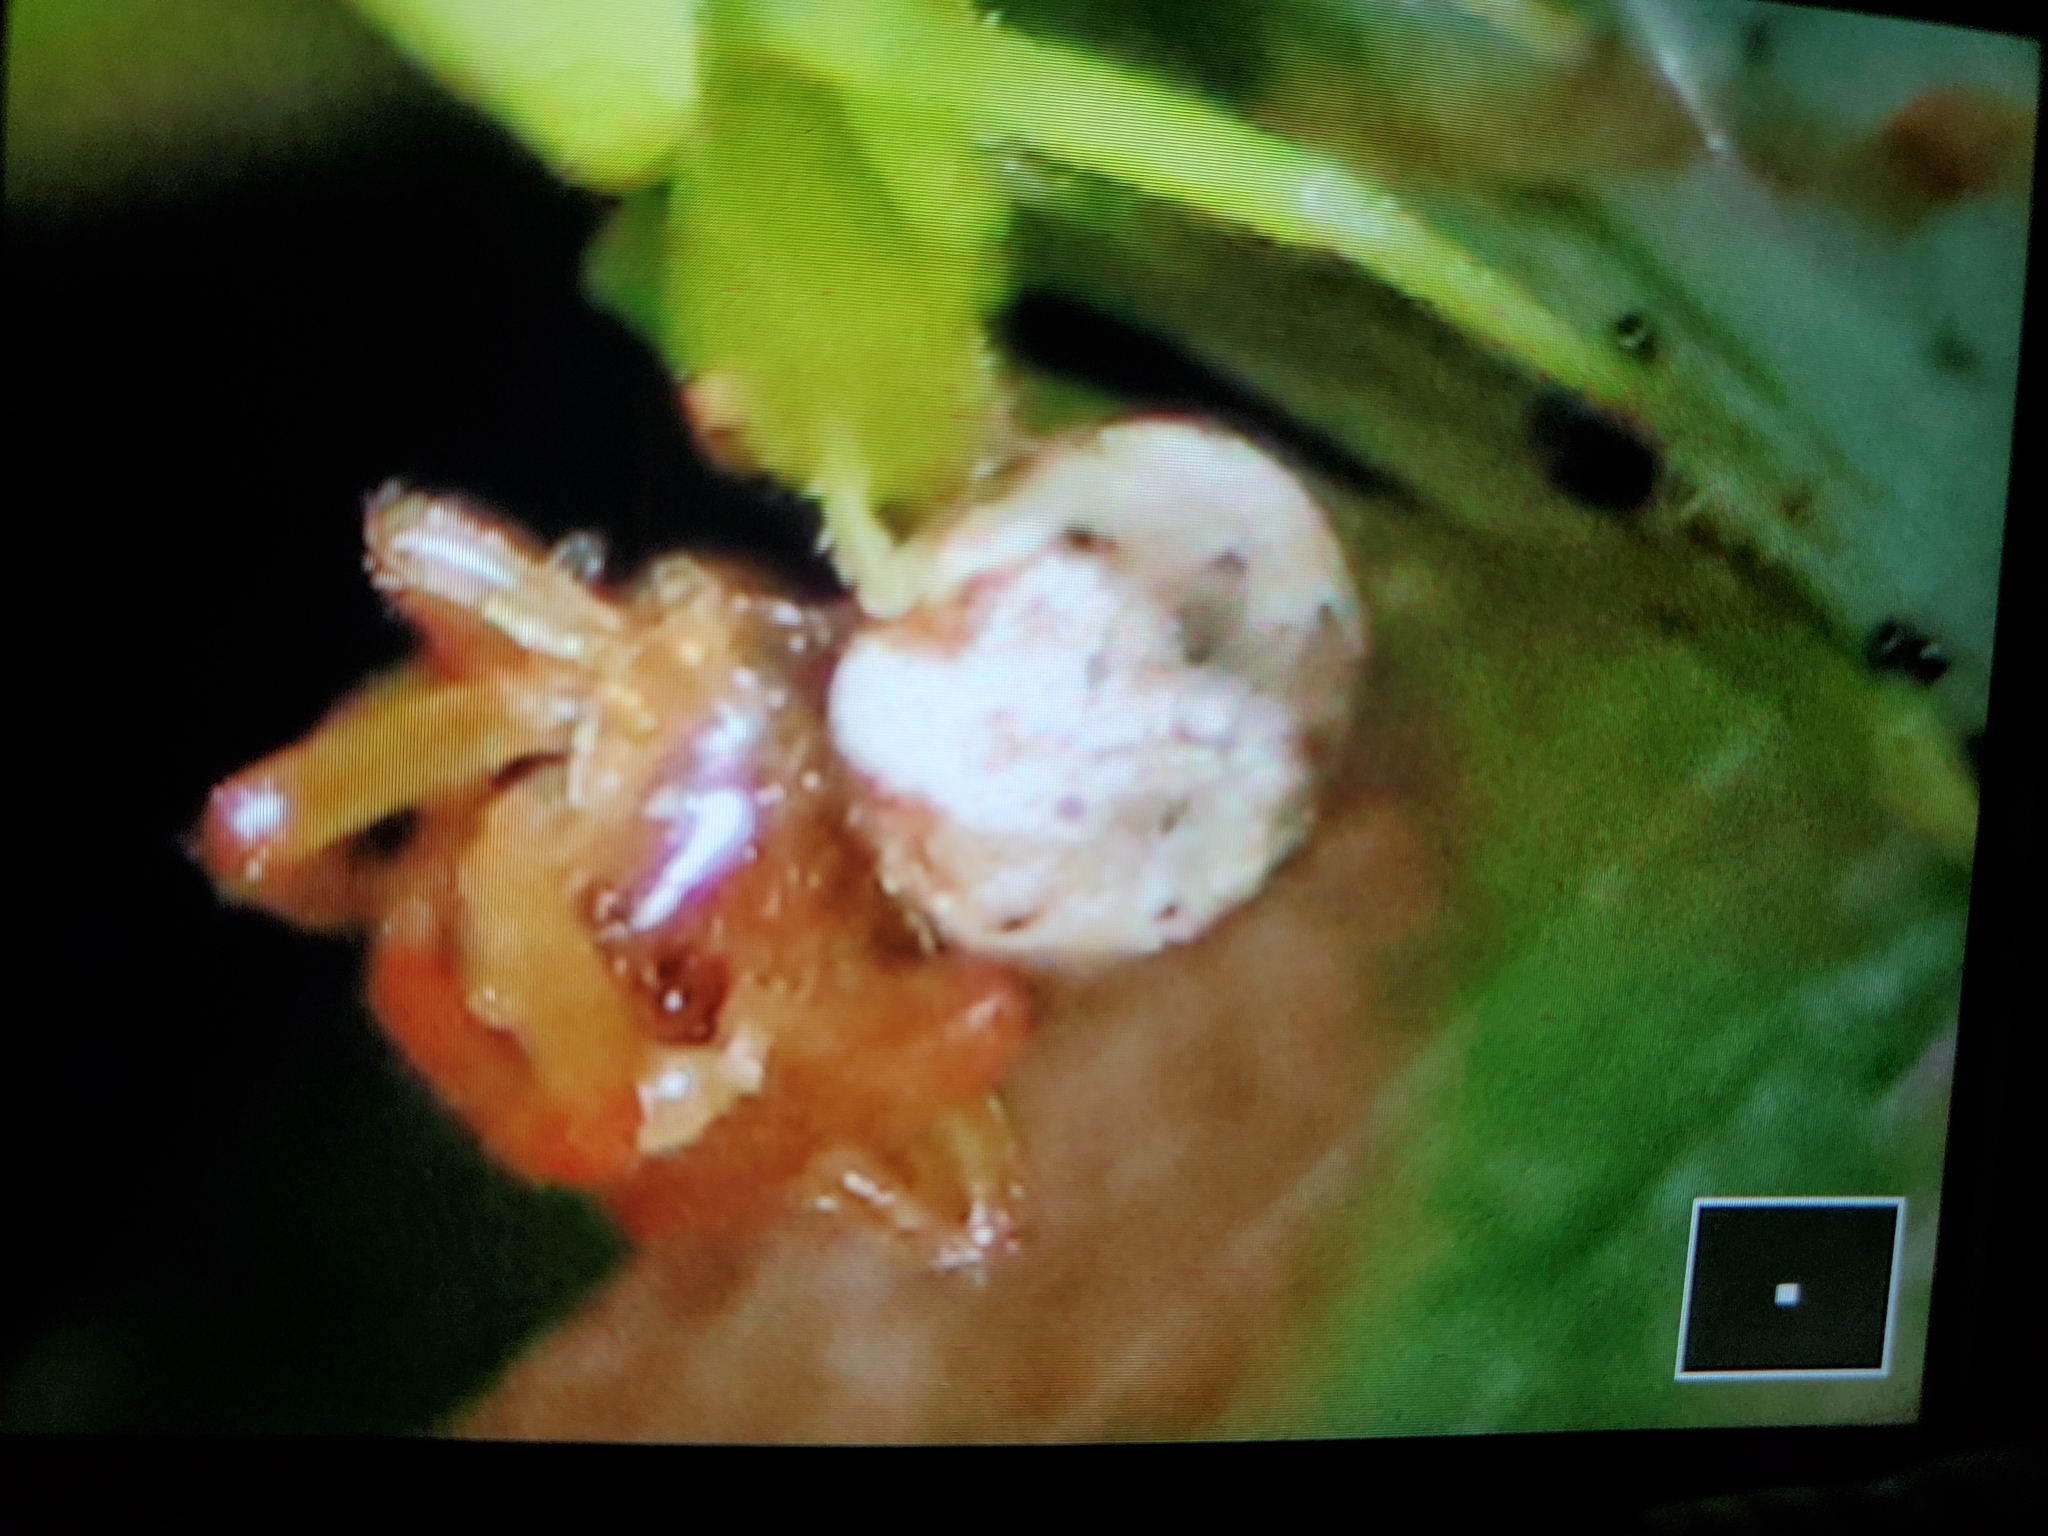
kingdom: Animalia
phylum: Arthropoda
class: Arachnida
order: Araneae
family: Thomisidae
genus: Misumessus
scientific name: Misumessus tamiami
